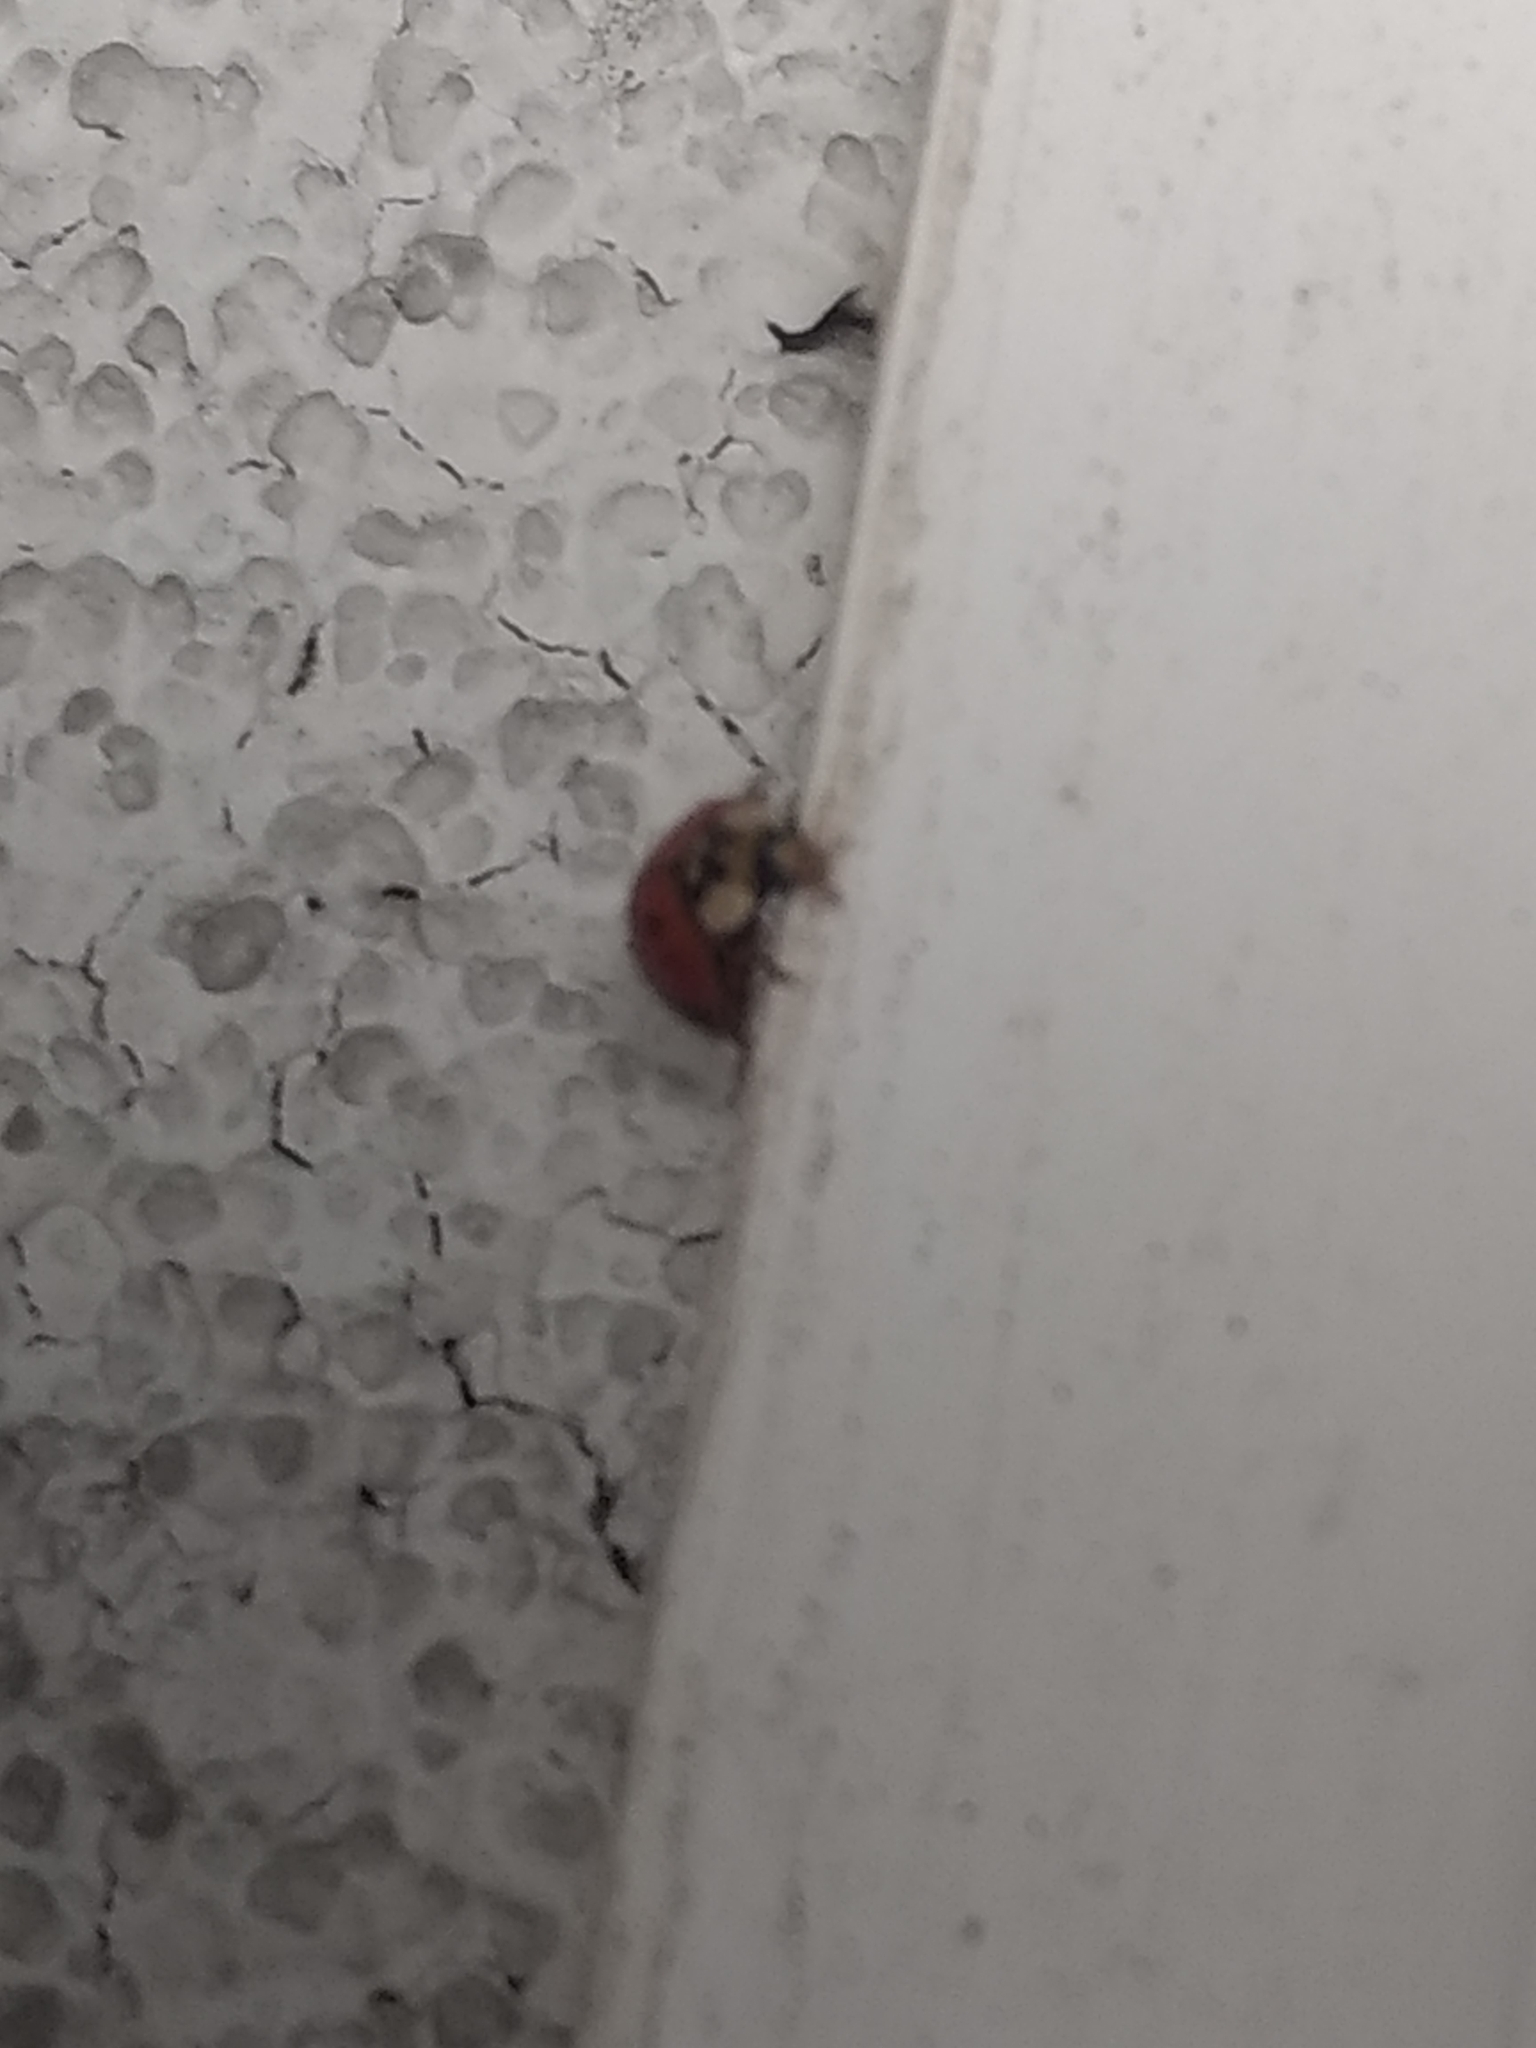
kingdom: Animalia
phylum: Arthropoda
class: Insecta
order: Coleoptera
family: Coccinellidae
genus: Harmonia
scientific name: Harmonia axyridis
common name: Harlequin ladybird
